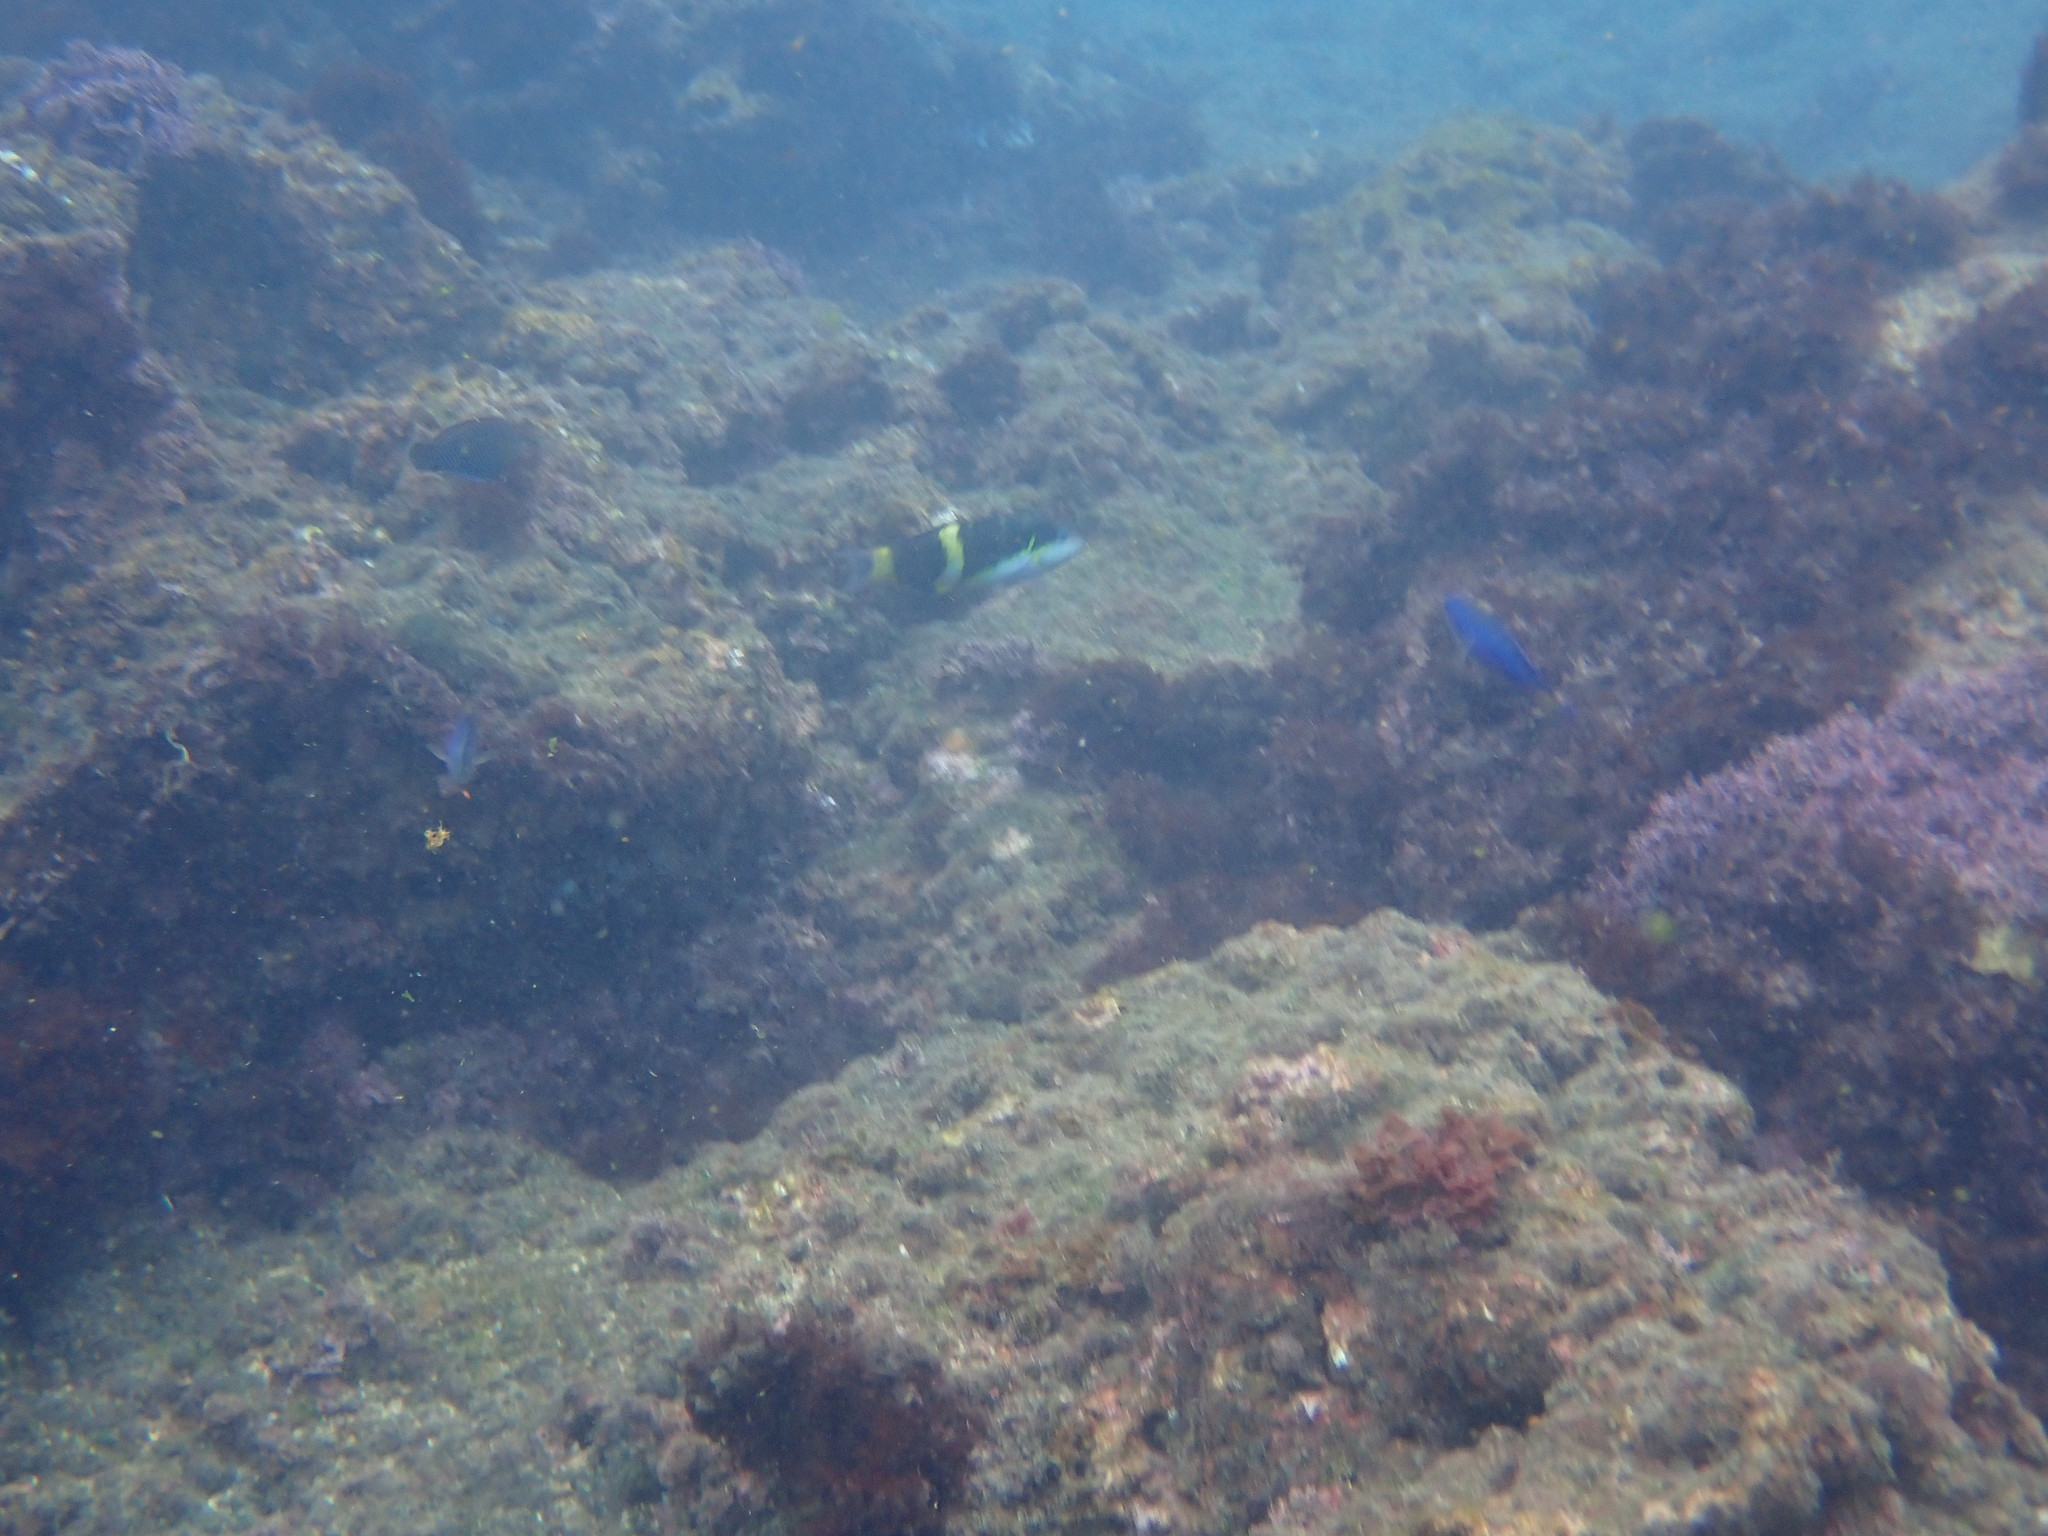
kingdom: Animalia
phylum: Chordata
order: Perciformes
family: Labridae
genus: Thalassoma
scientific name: Thalassoma jansenii
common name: Jansen's wrasse
